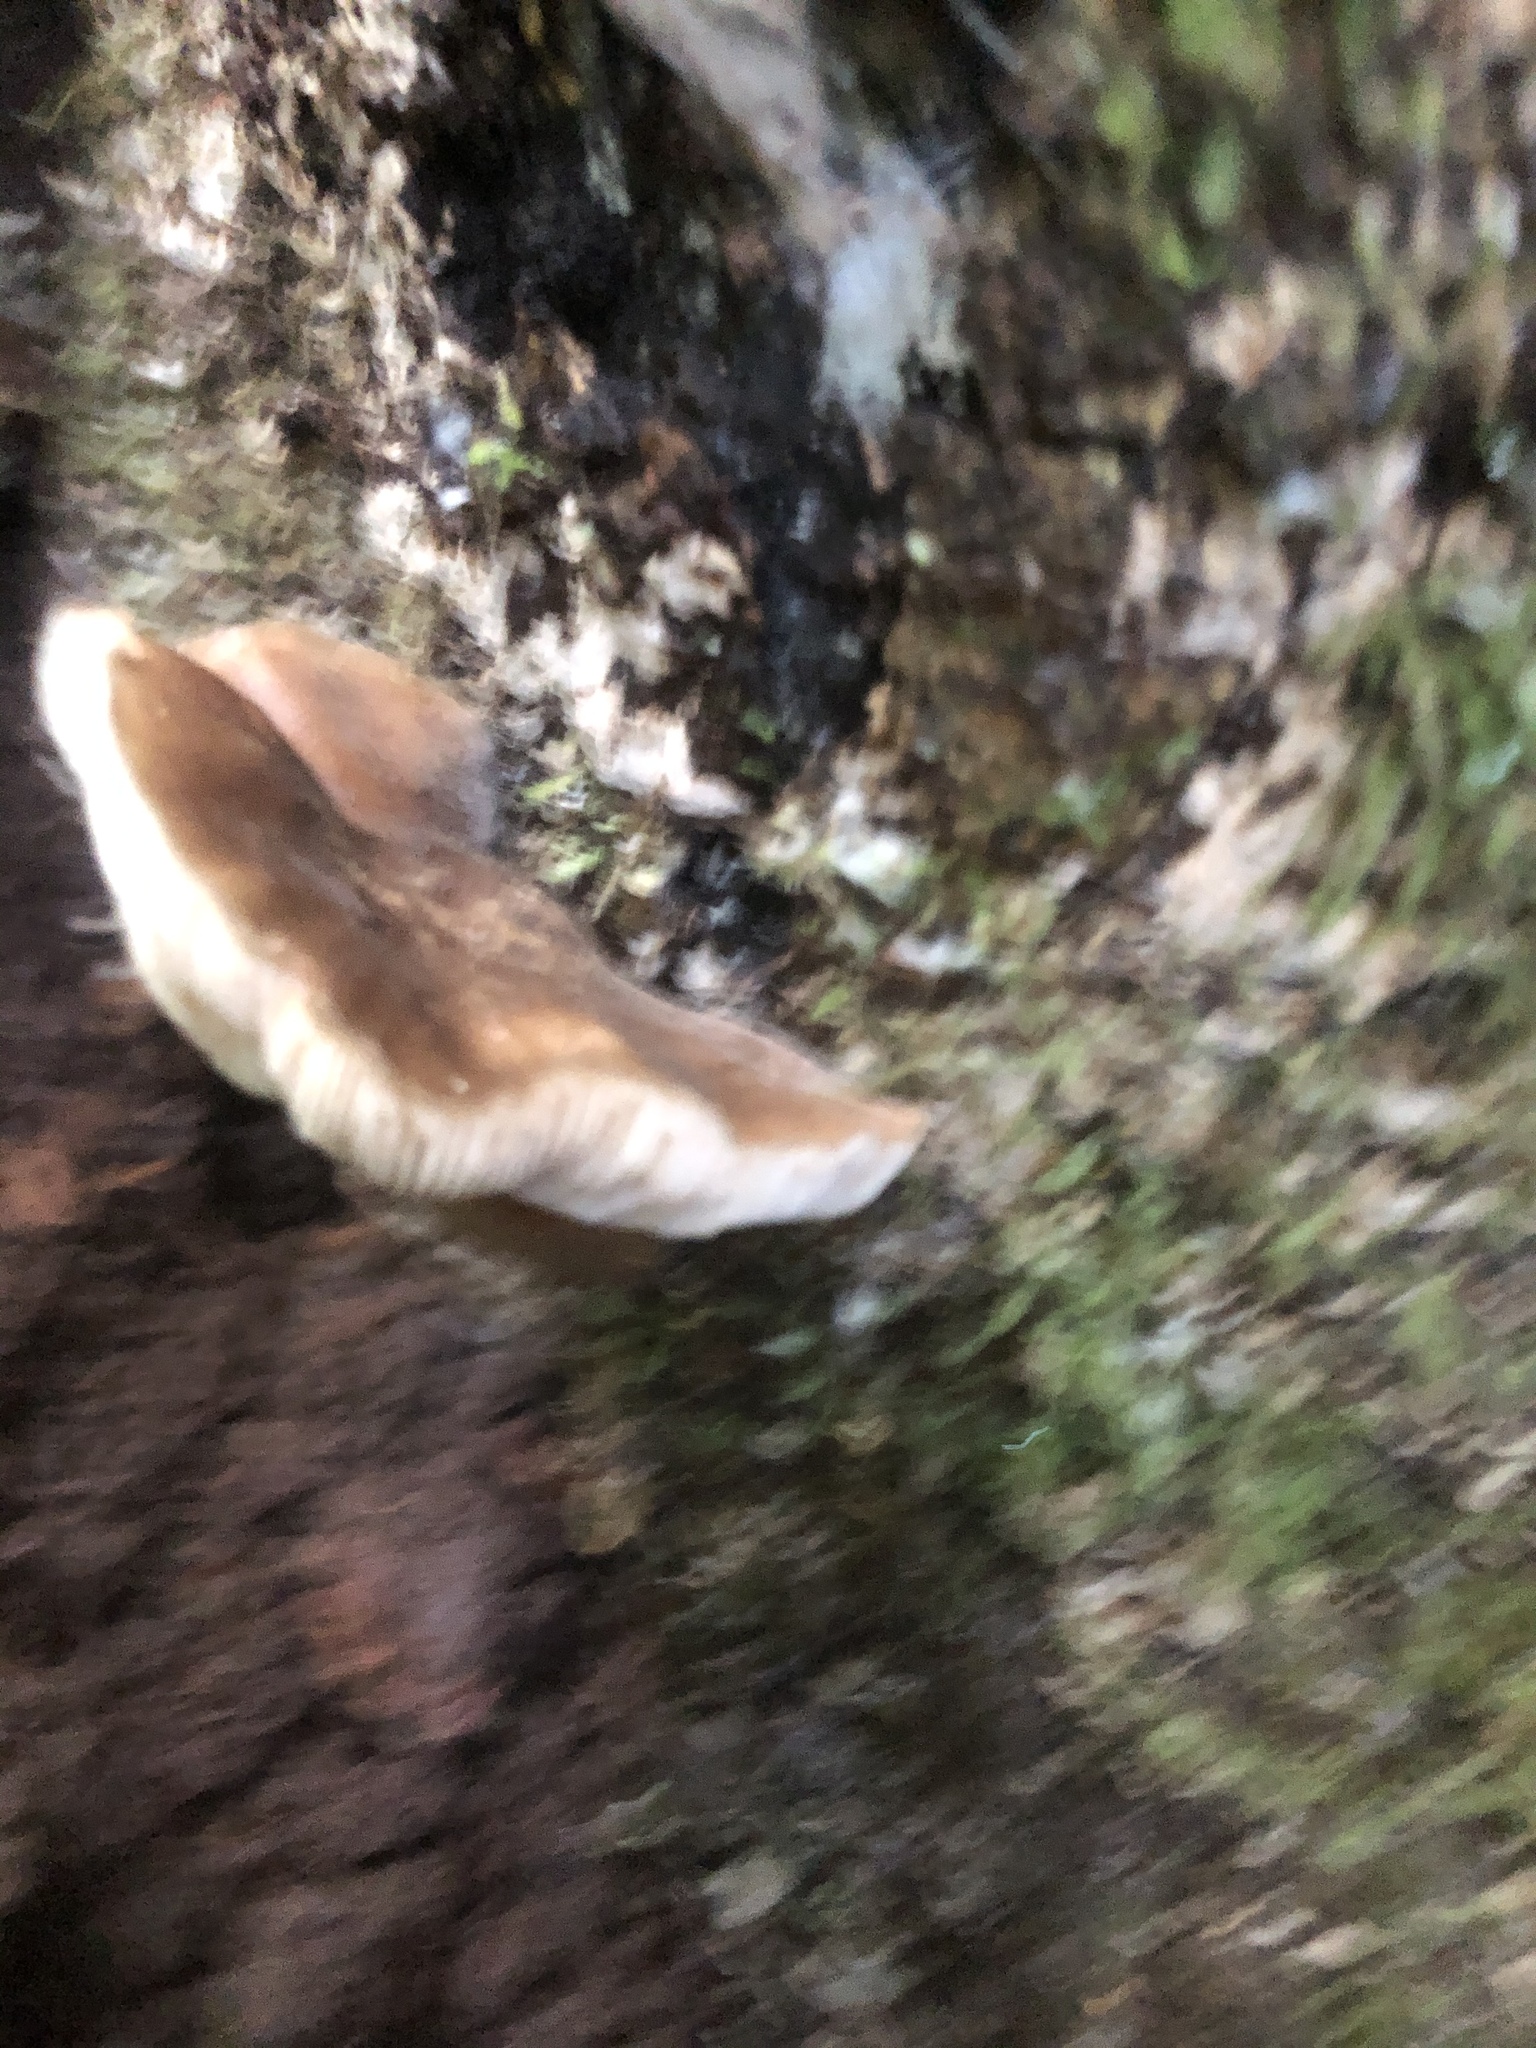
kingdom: Fungi
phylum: Basidiomycota
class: Agaricomycetes
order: Agaricales
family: Pluteaceae
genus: Pluteus
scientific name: Pluteus exilis
